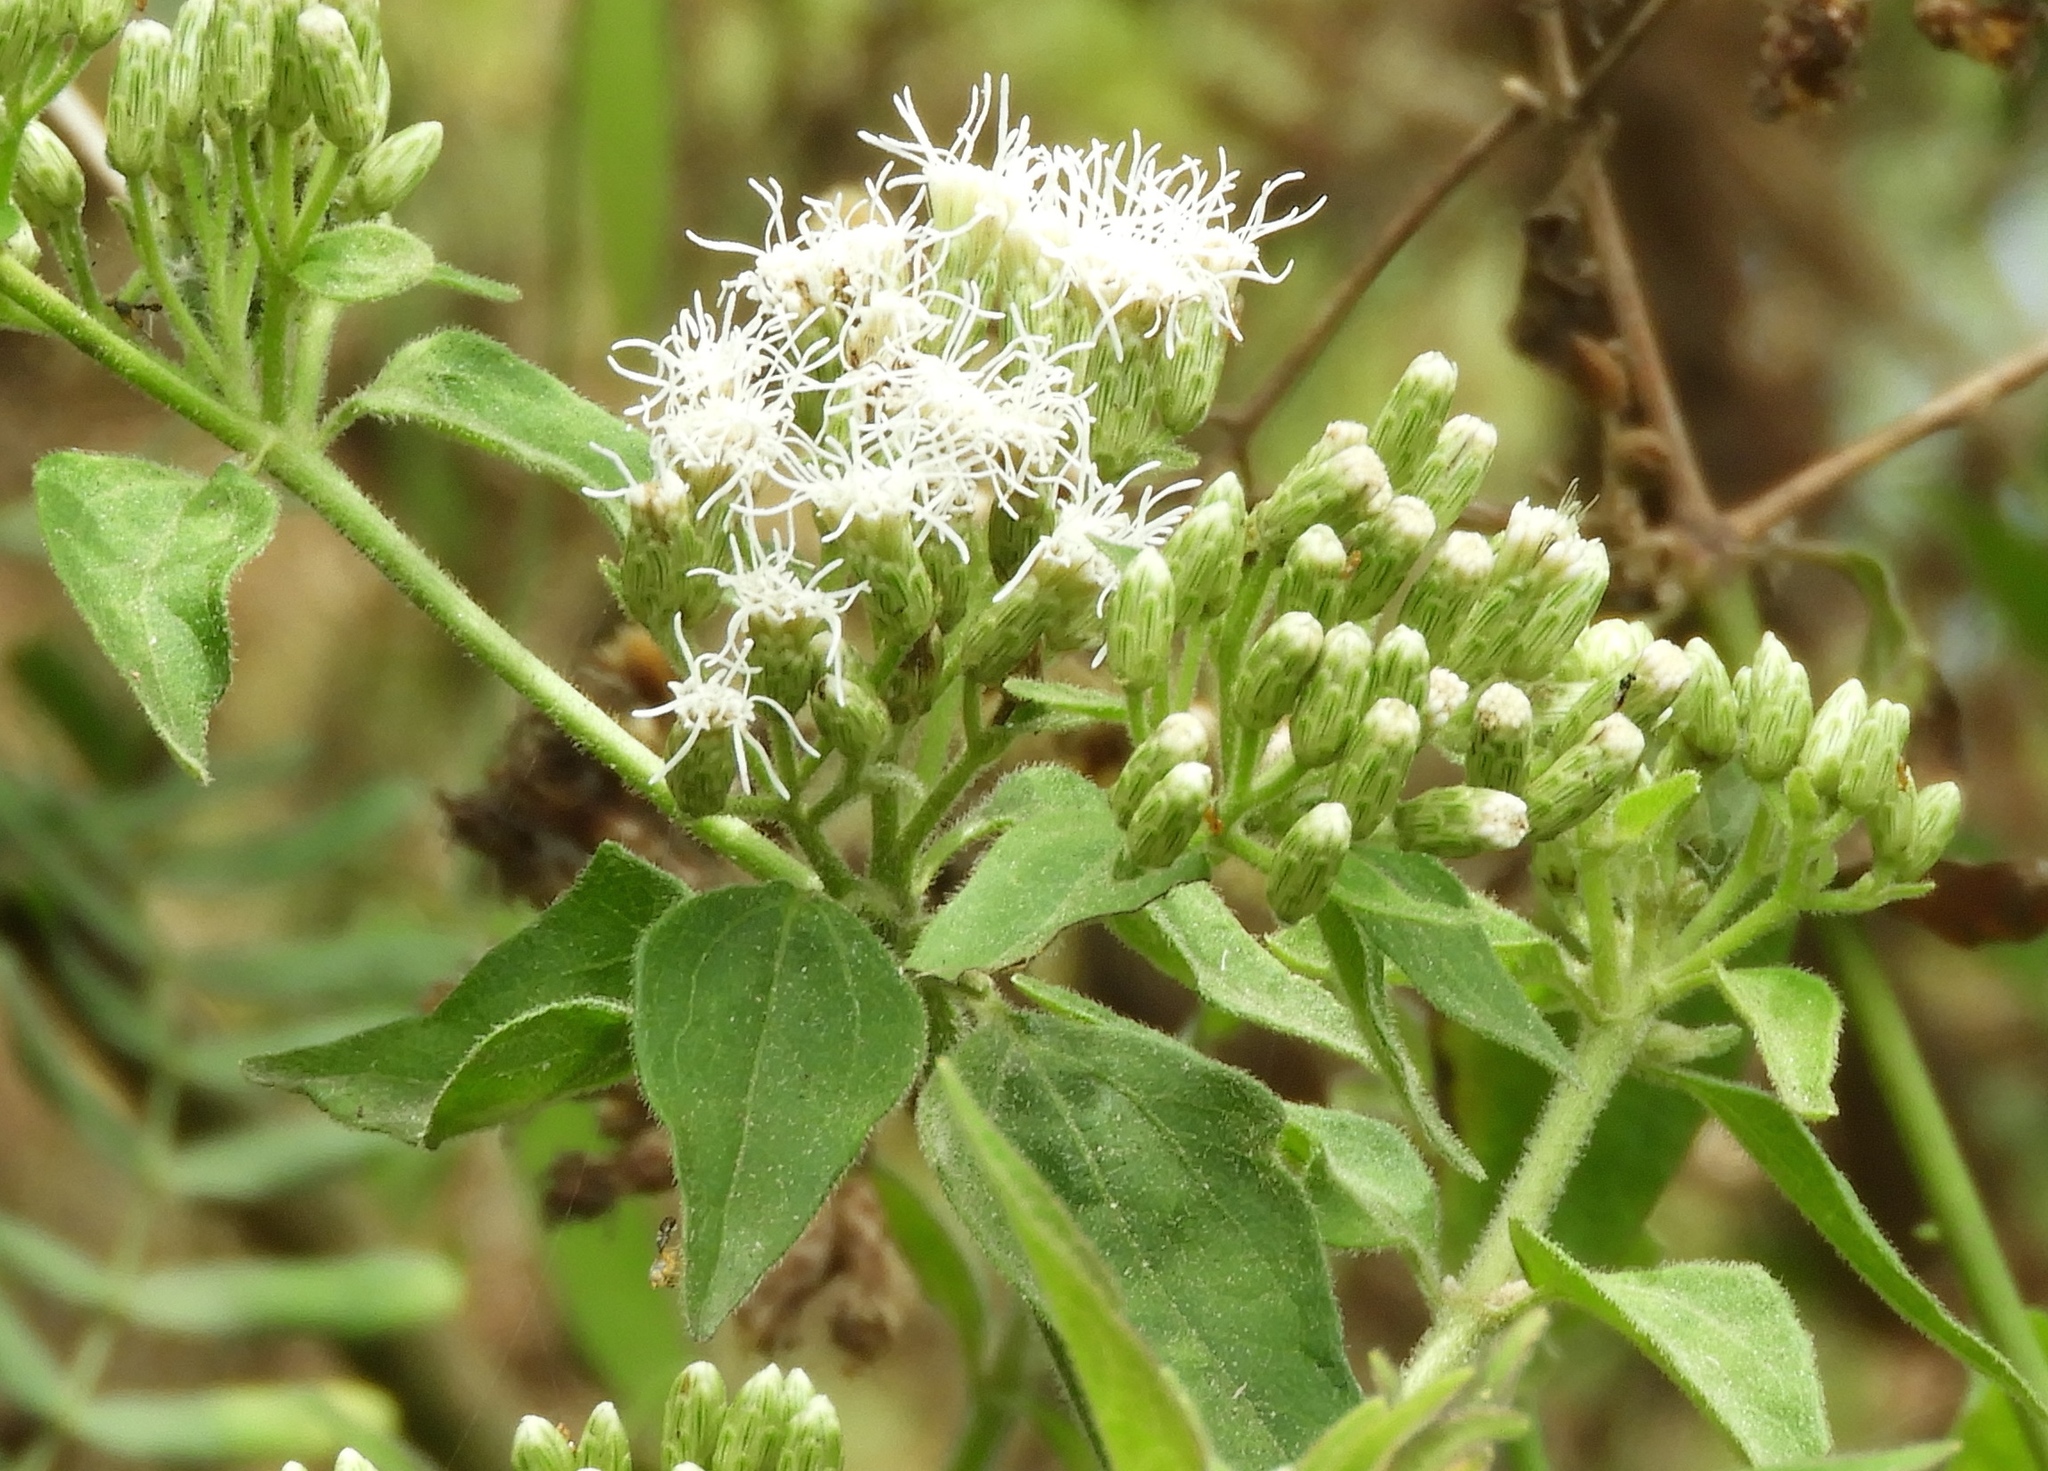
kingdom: Plantae
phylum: Tracheophyta
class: Magnoliopsida
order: Asterales
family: Asteraceae
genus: Chromolaena
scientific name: Chromolaena odorata
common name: Siamweed
